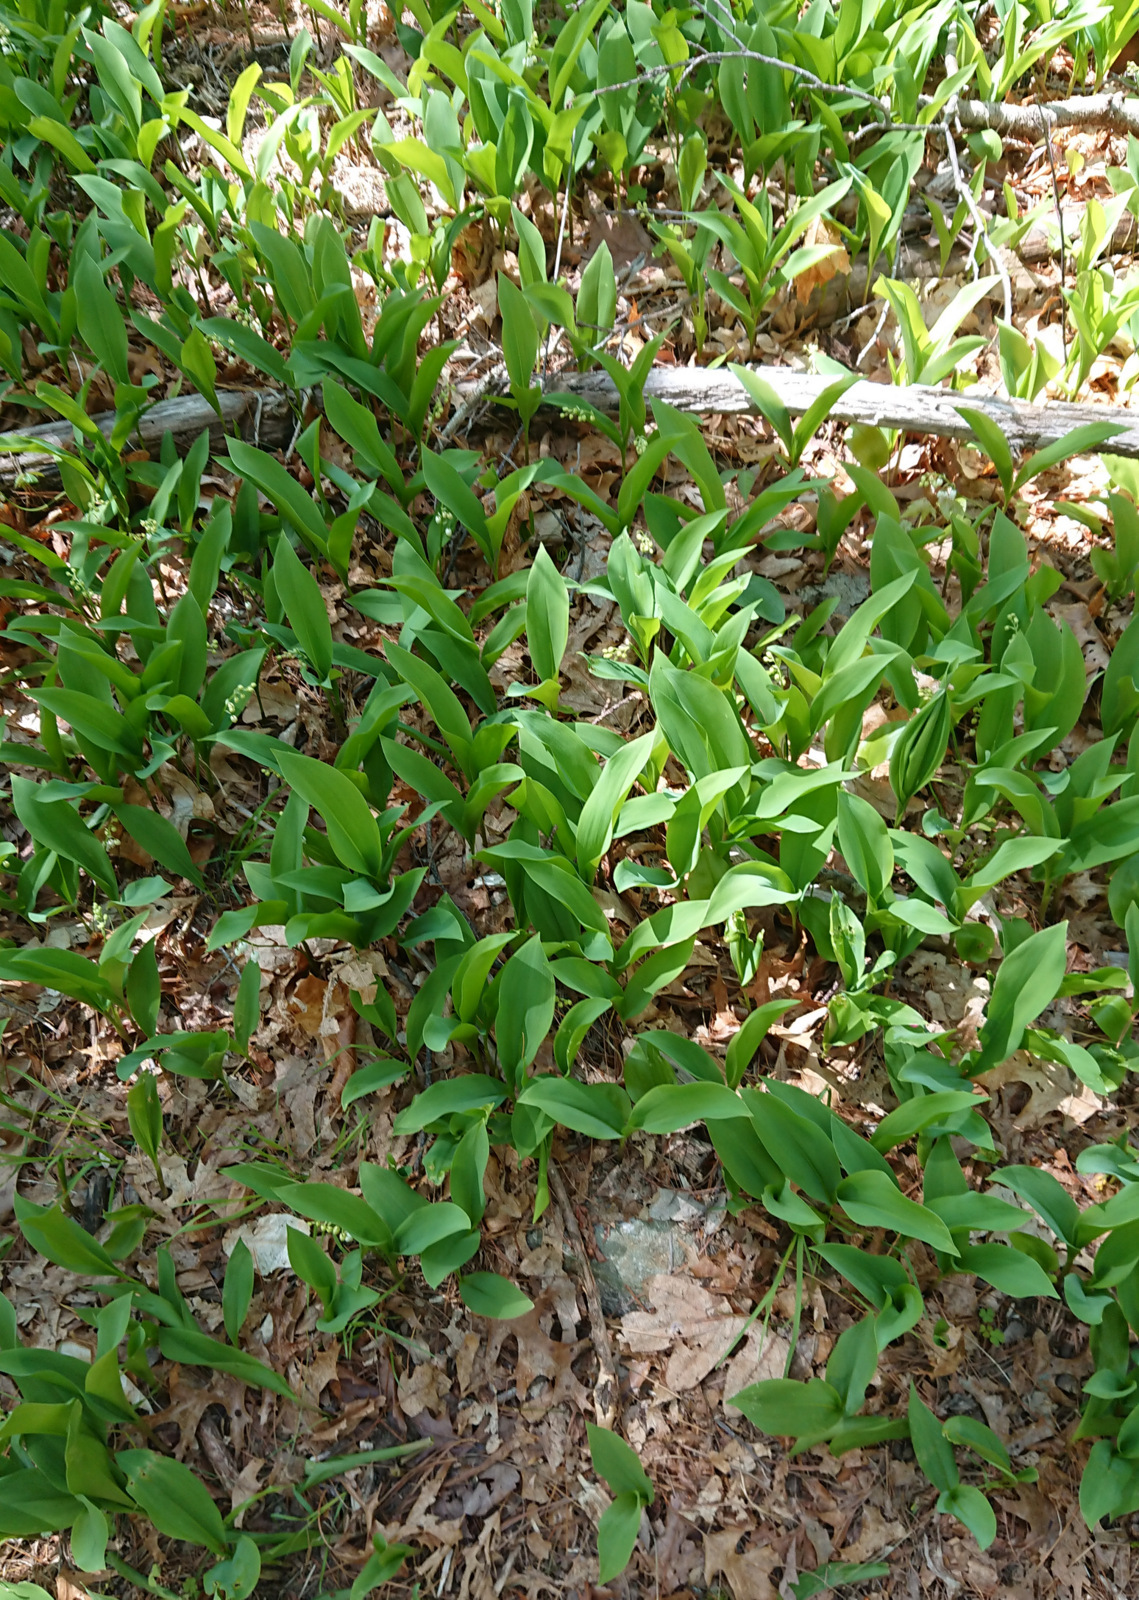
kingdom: Plantae
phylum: Tracheophyta
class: Liliopsida
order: Asparagales
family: Asparagaceae
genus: Convallaria
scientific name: Convallaria majalis
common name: Lily-of-the-valley
